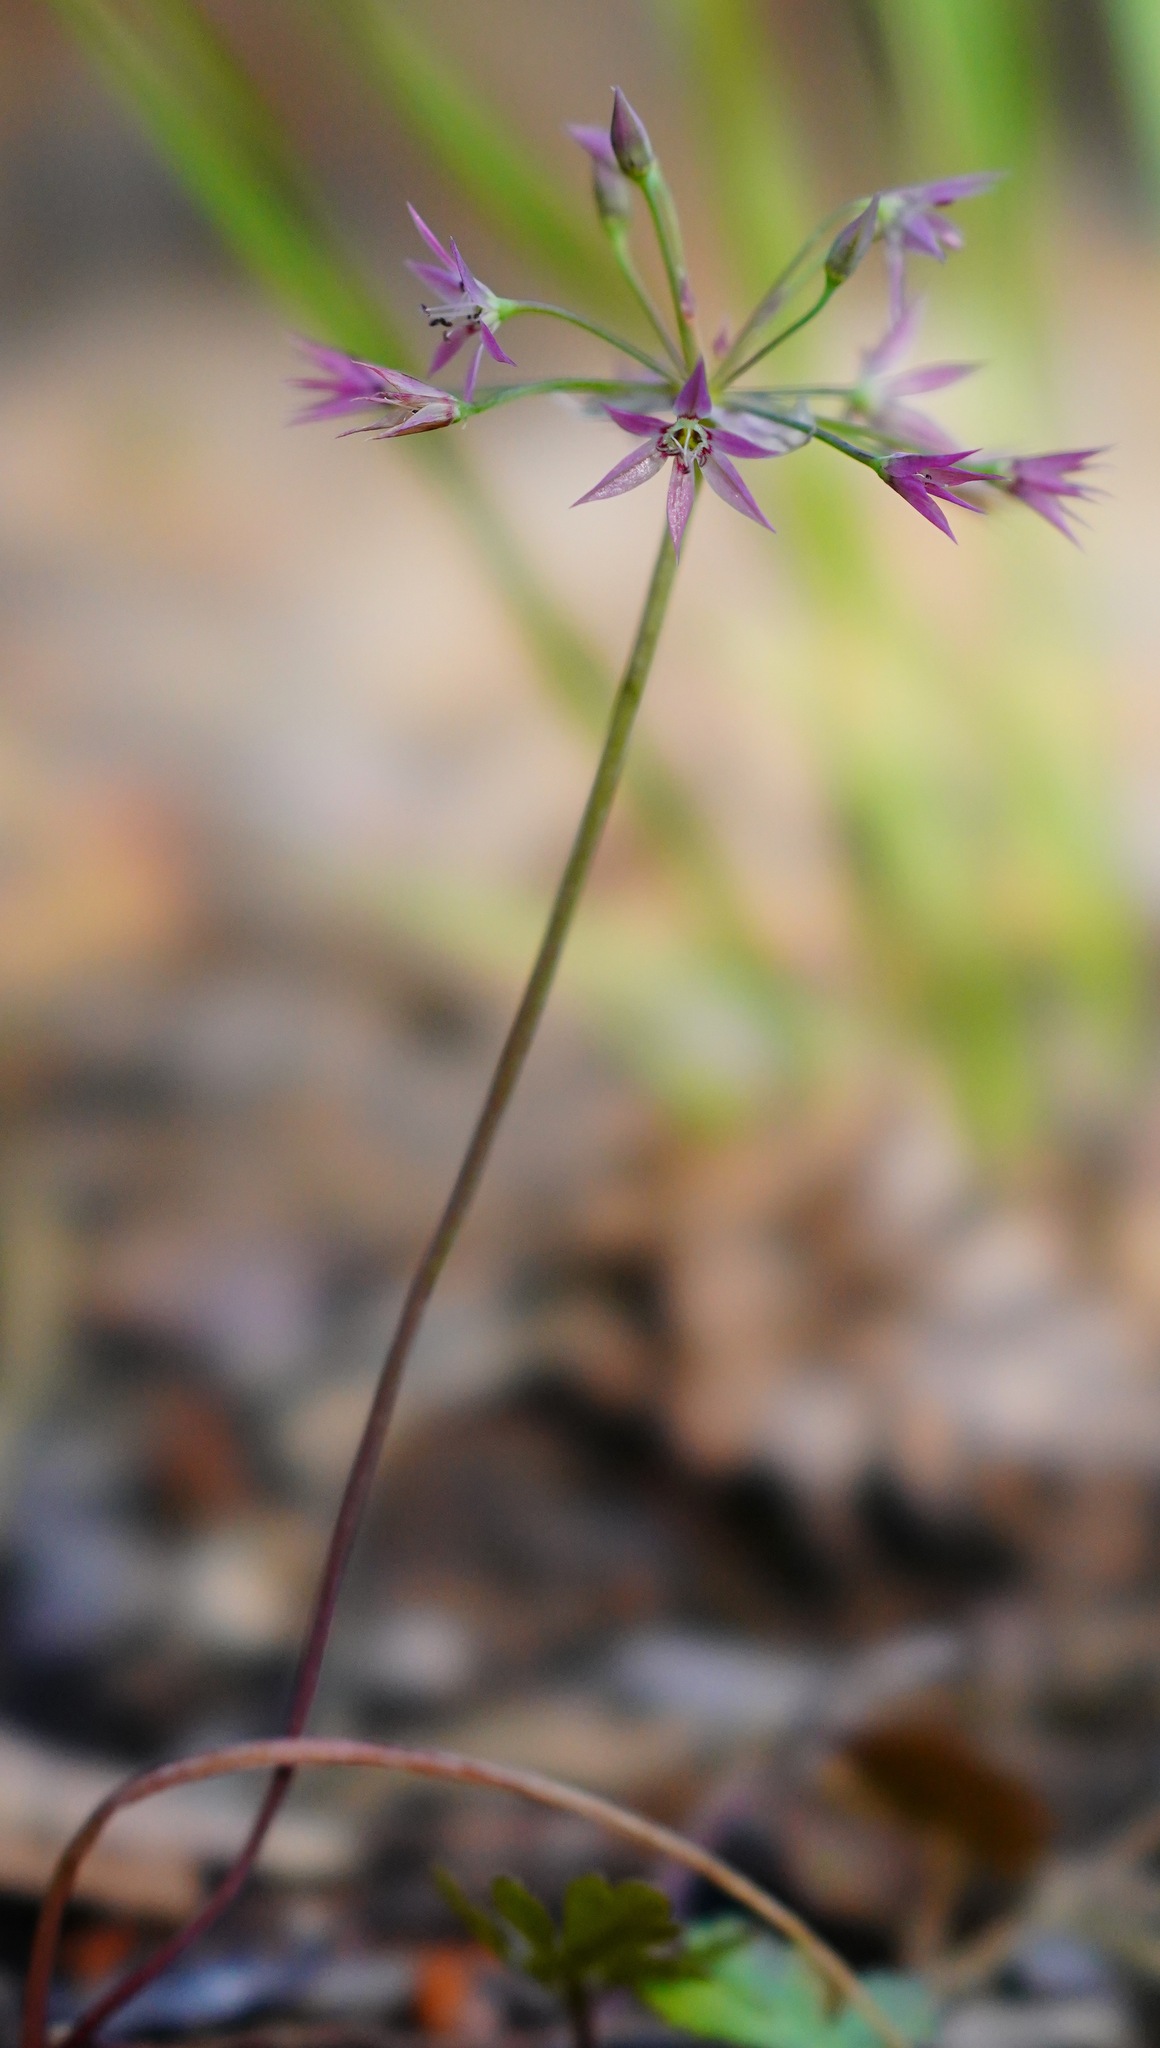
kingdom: Plantae
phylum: Tracheophyta
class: Liliopsida
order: Asparagales
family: Amaryllidaceae
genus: Allium
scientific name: Allium campanulatum
